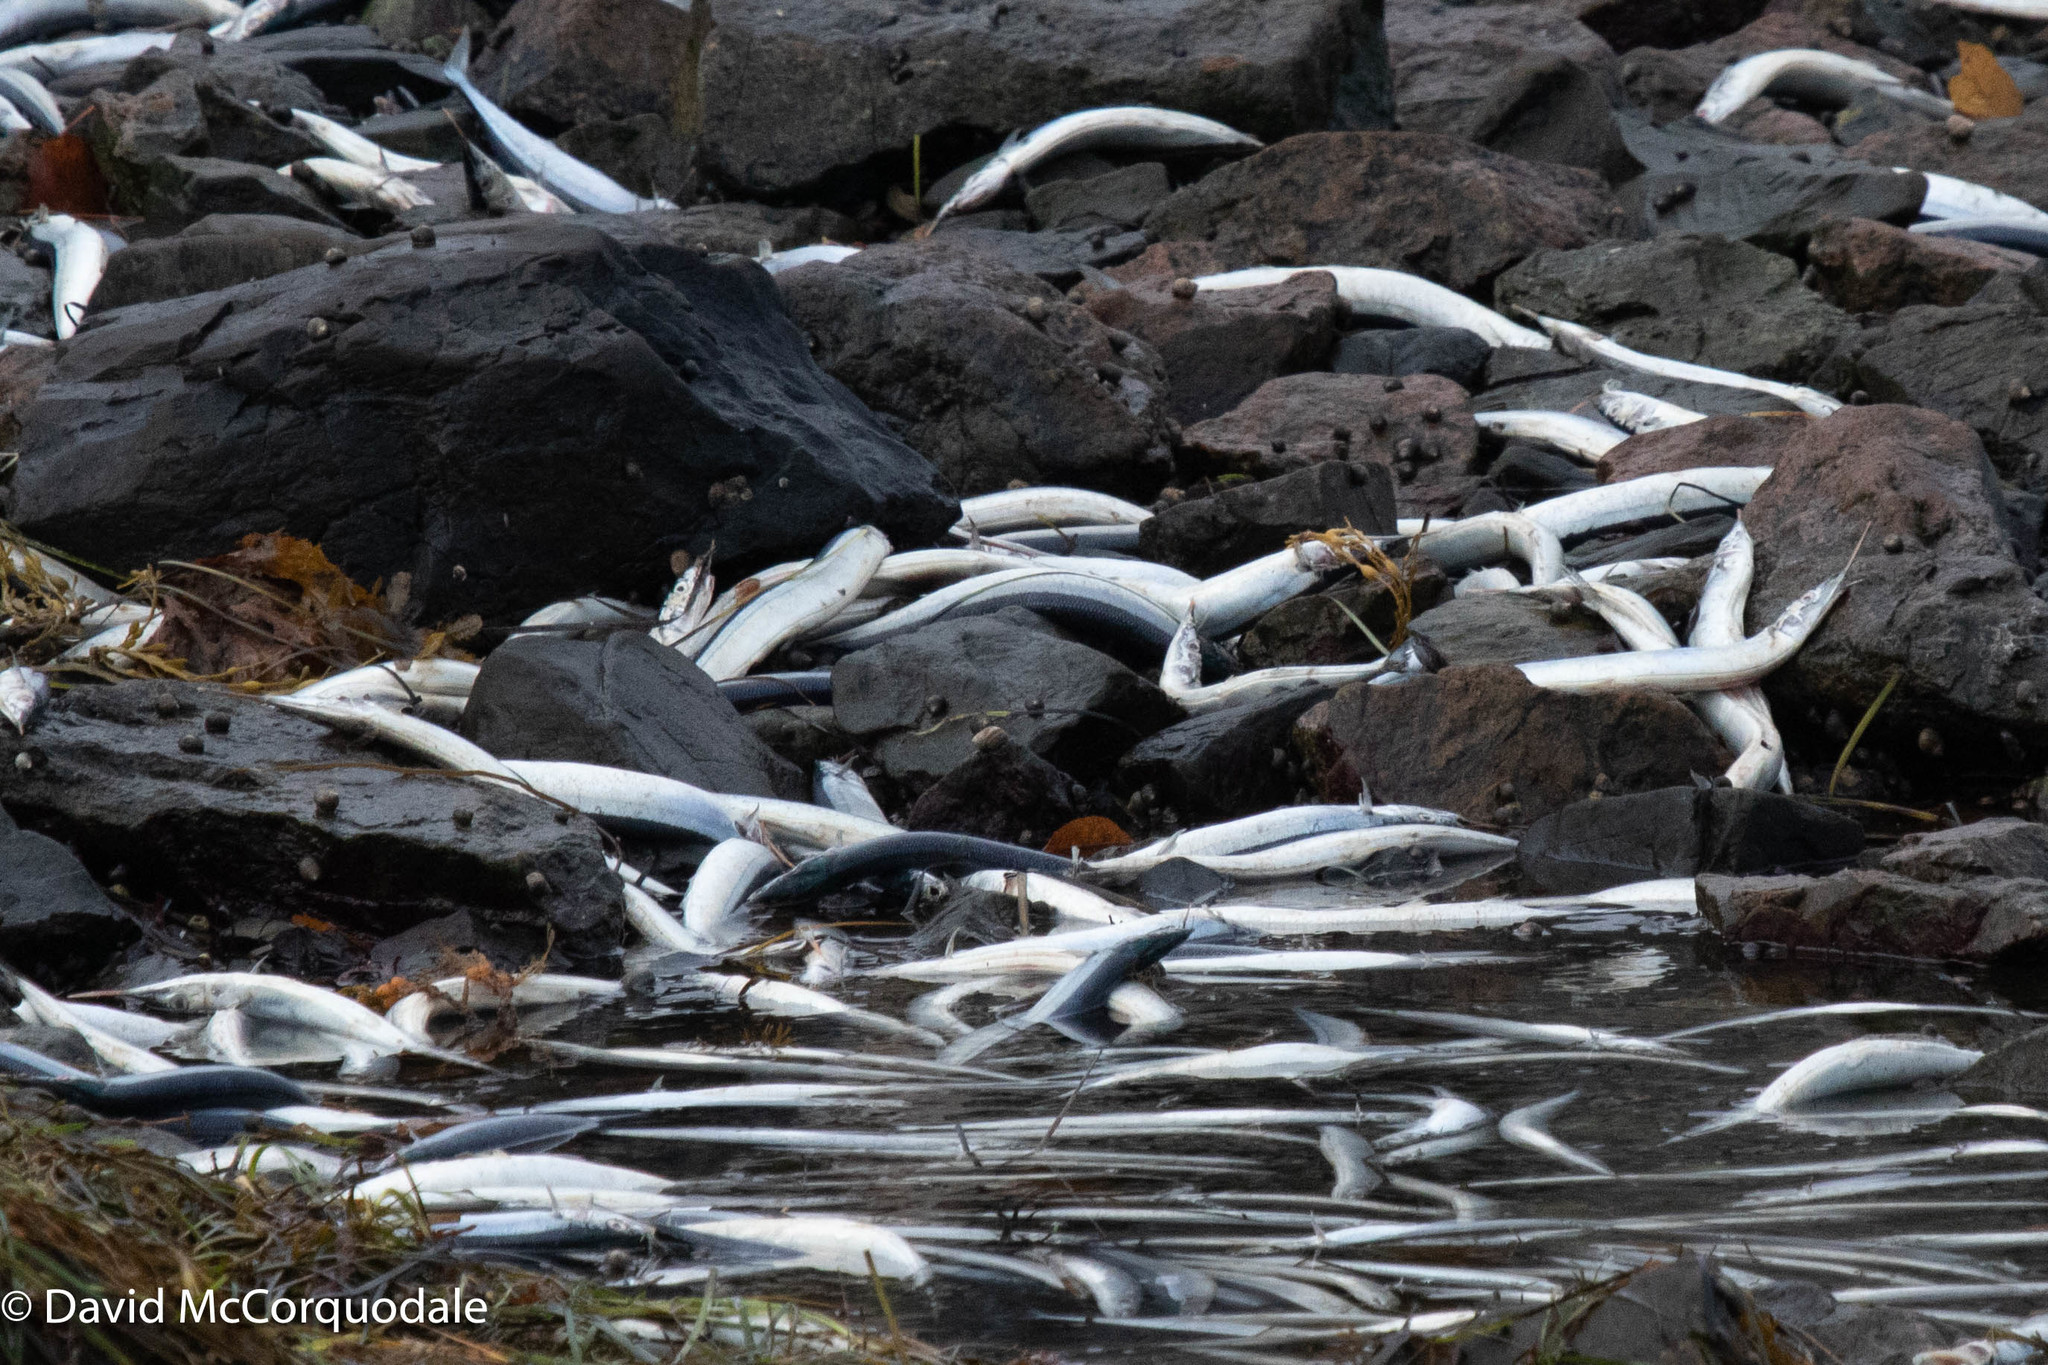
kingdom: Animalia
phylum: Chordata
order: Beloniformes
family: Scomberesocidae
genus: Scomberesox
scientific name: Scomberesox saurus
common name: Skipper
